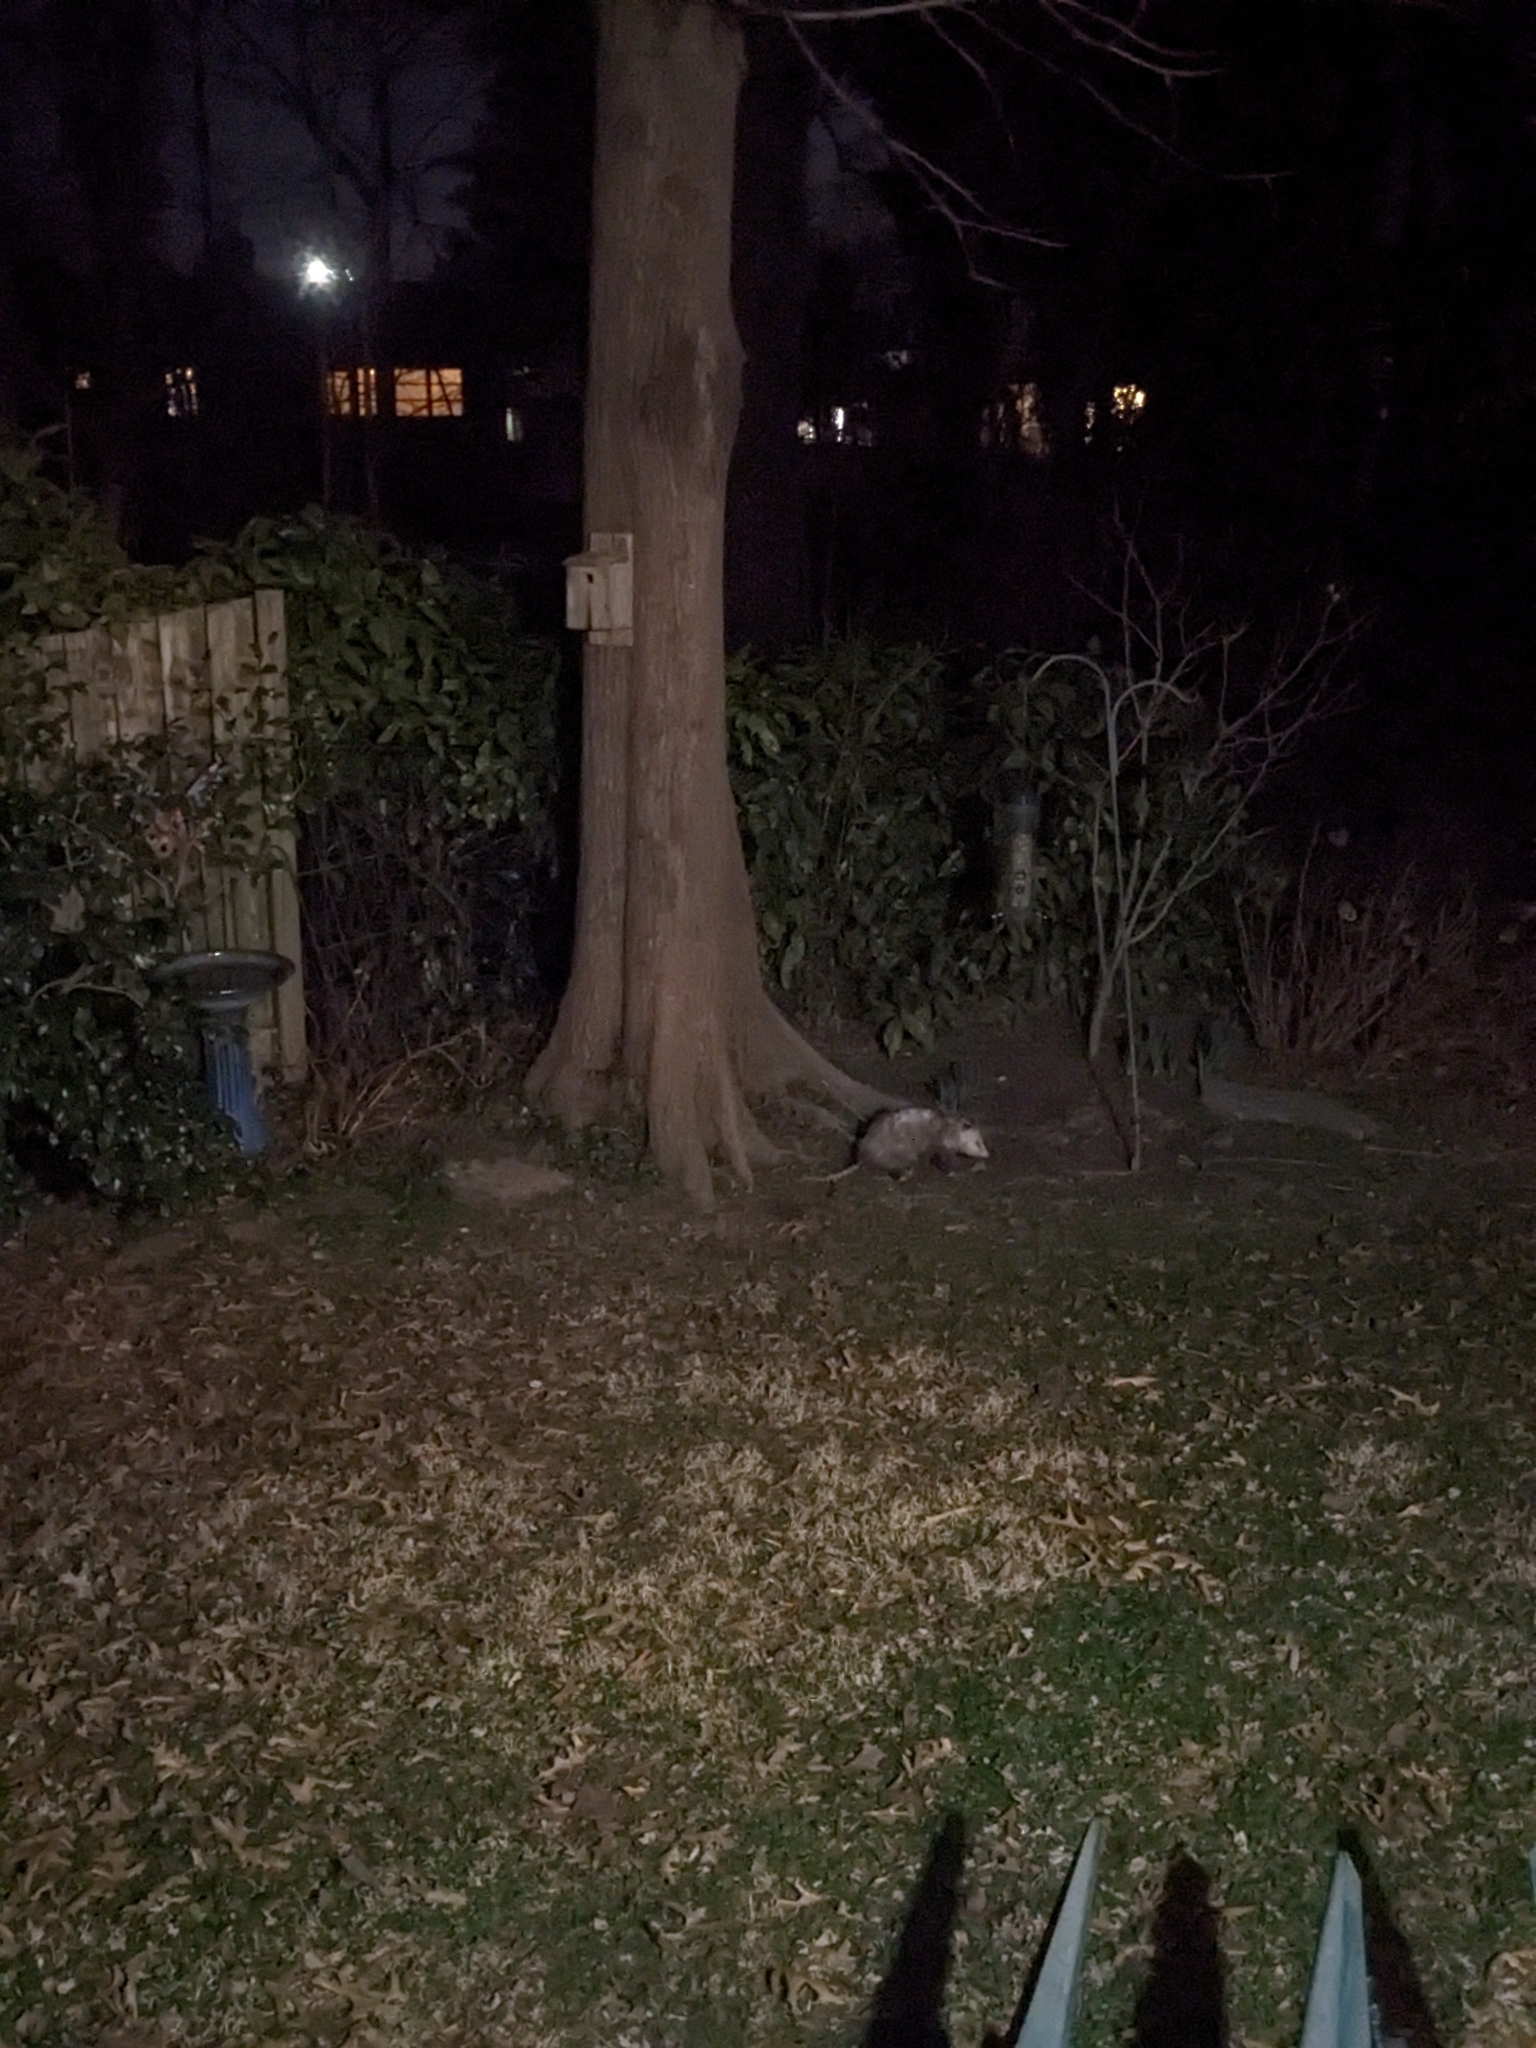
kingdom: Animalia
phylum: Chordata
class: Mammalia
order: Didelphimorphia
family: Didelphidae
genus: Didelphis
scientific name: Didelphis virginiana
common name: Virginia opossum
